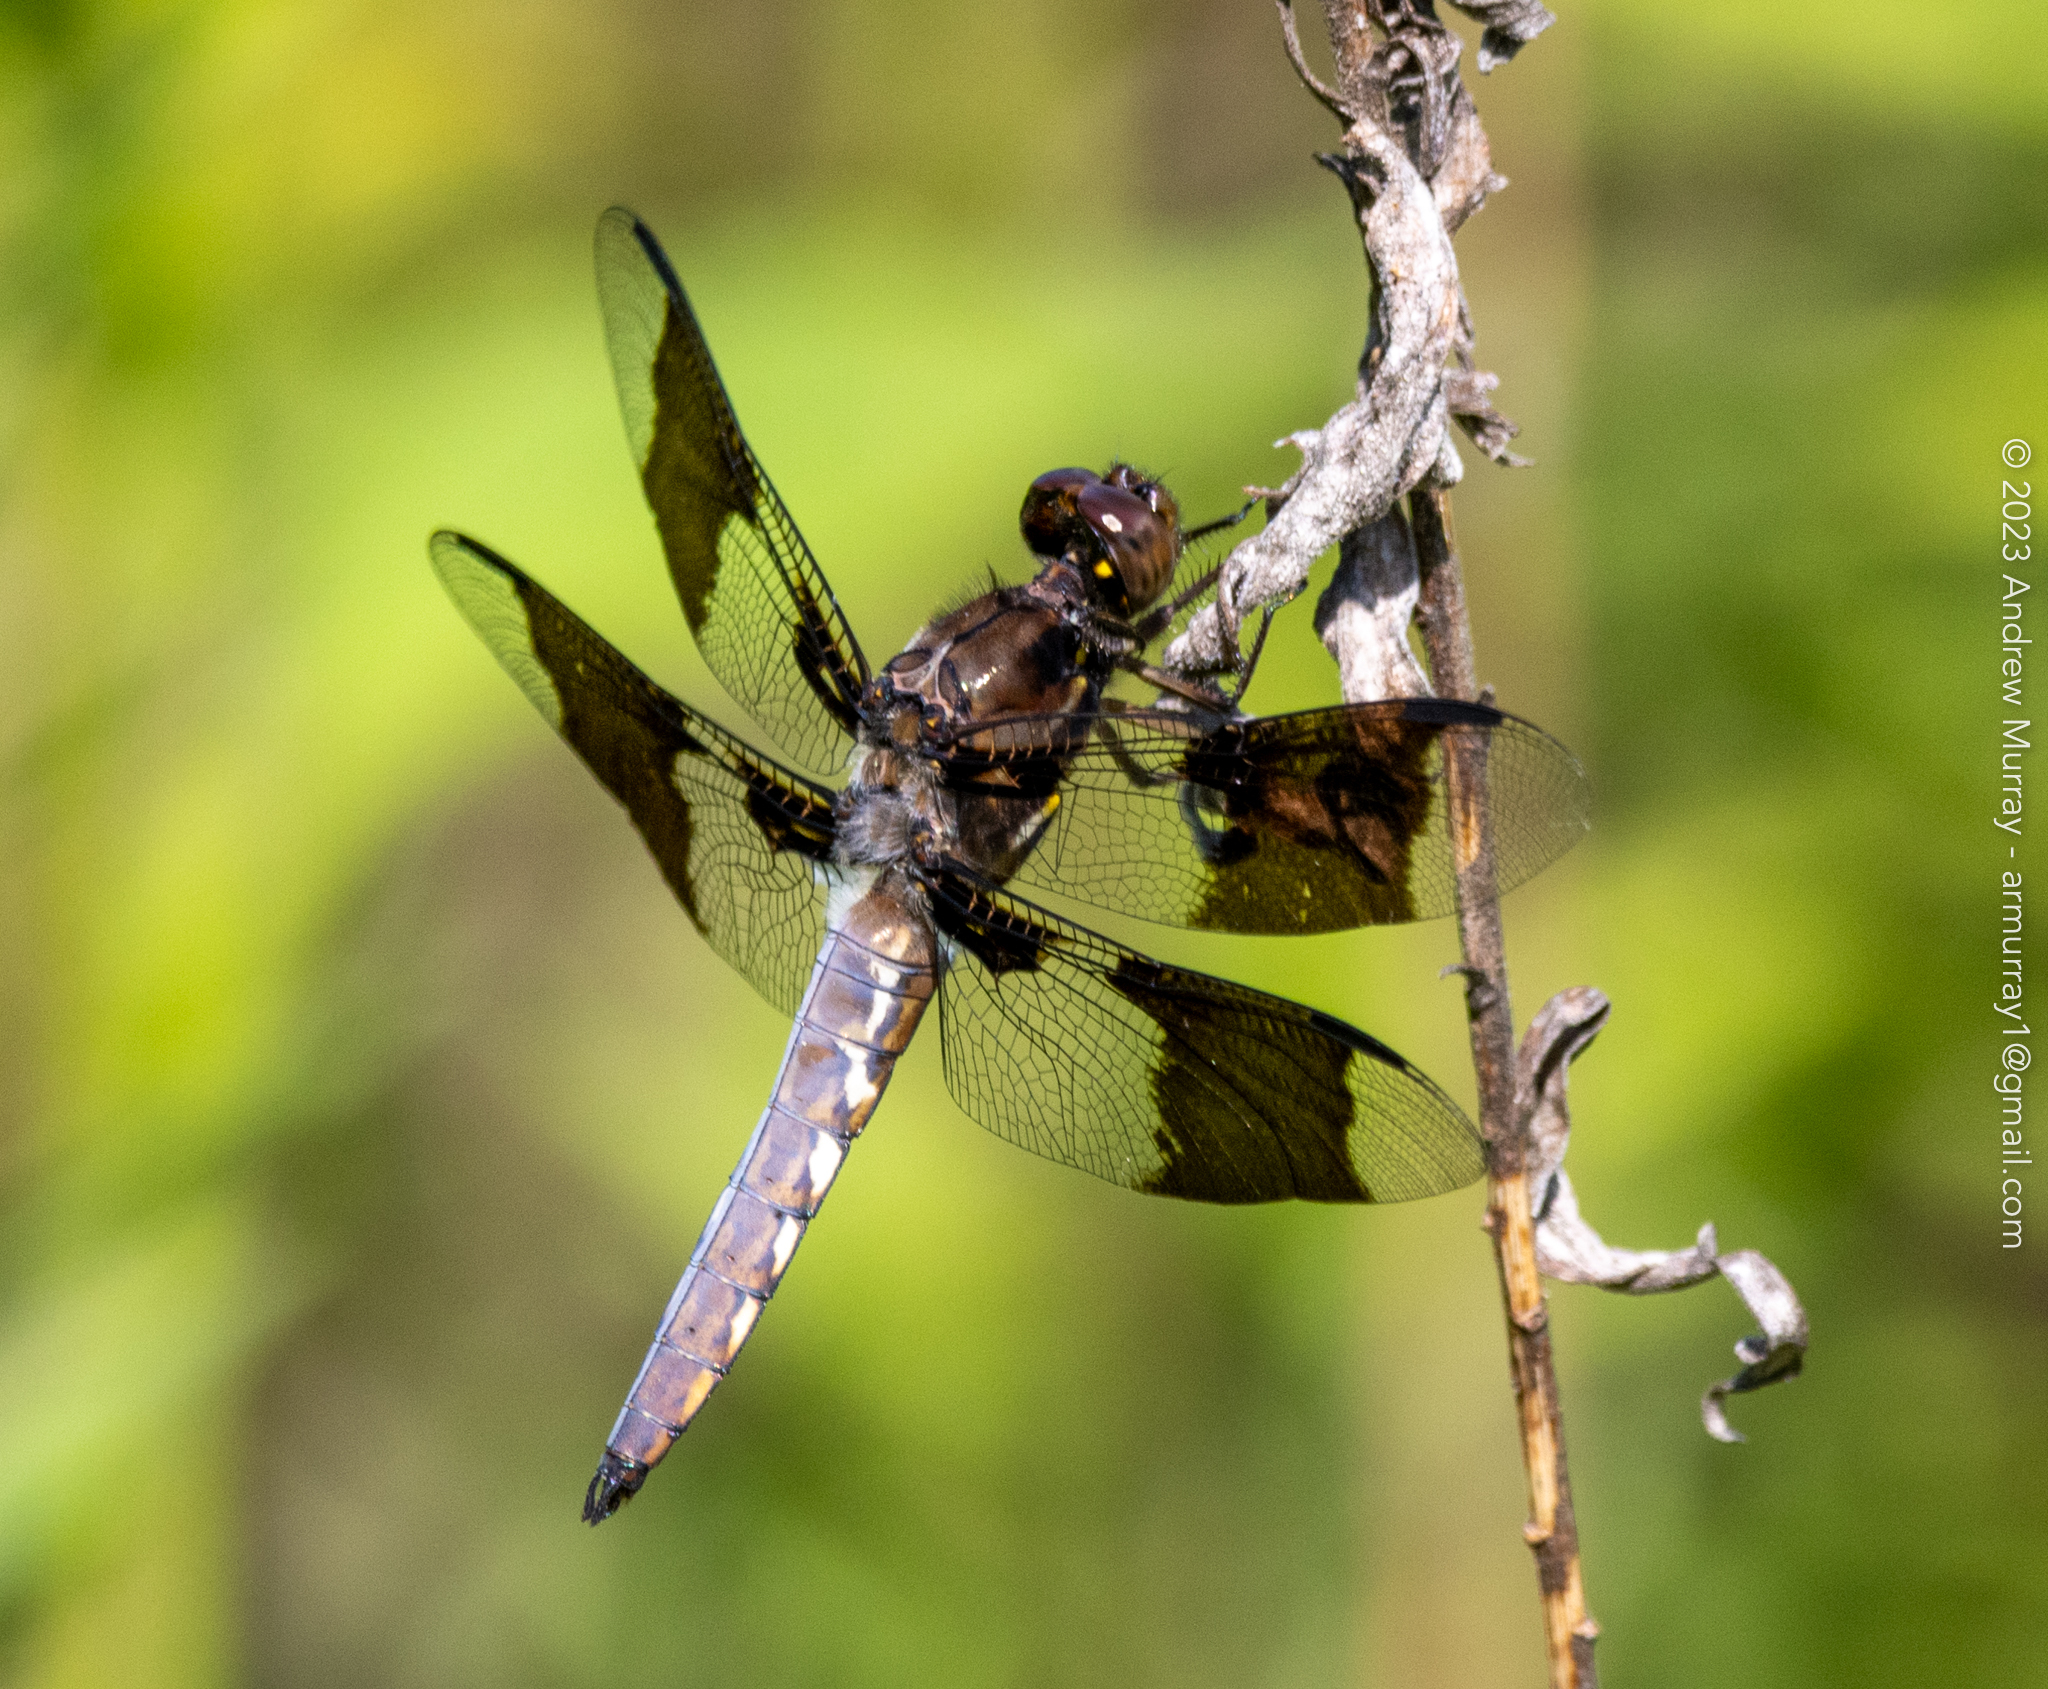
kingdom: Animalia
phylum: Arthropoda
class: Insecta
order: Odonata
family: Libellulidae
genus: Plathemis
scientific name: Plathemis lydia
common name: Common whitetail
